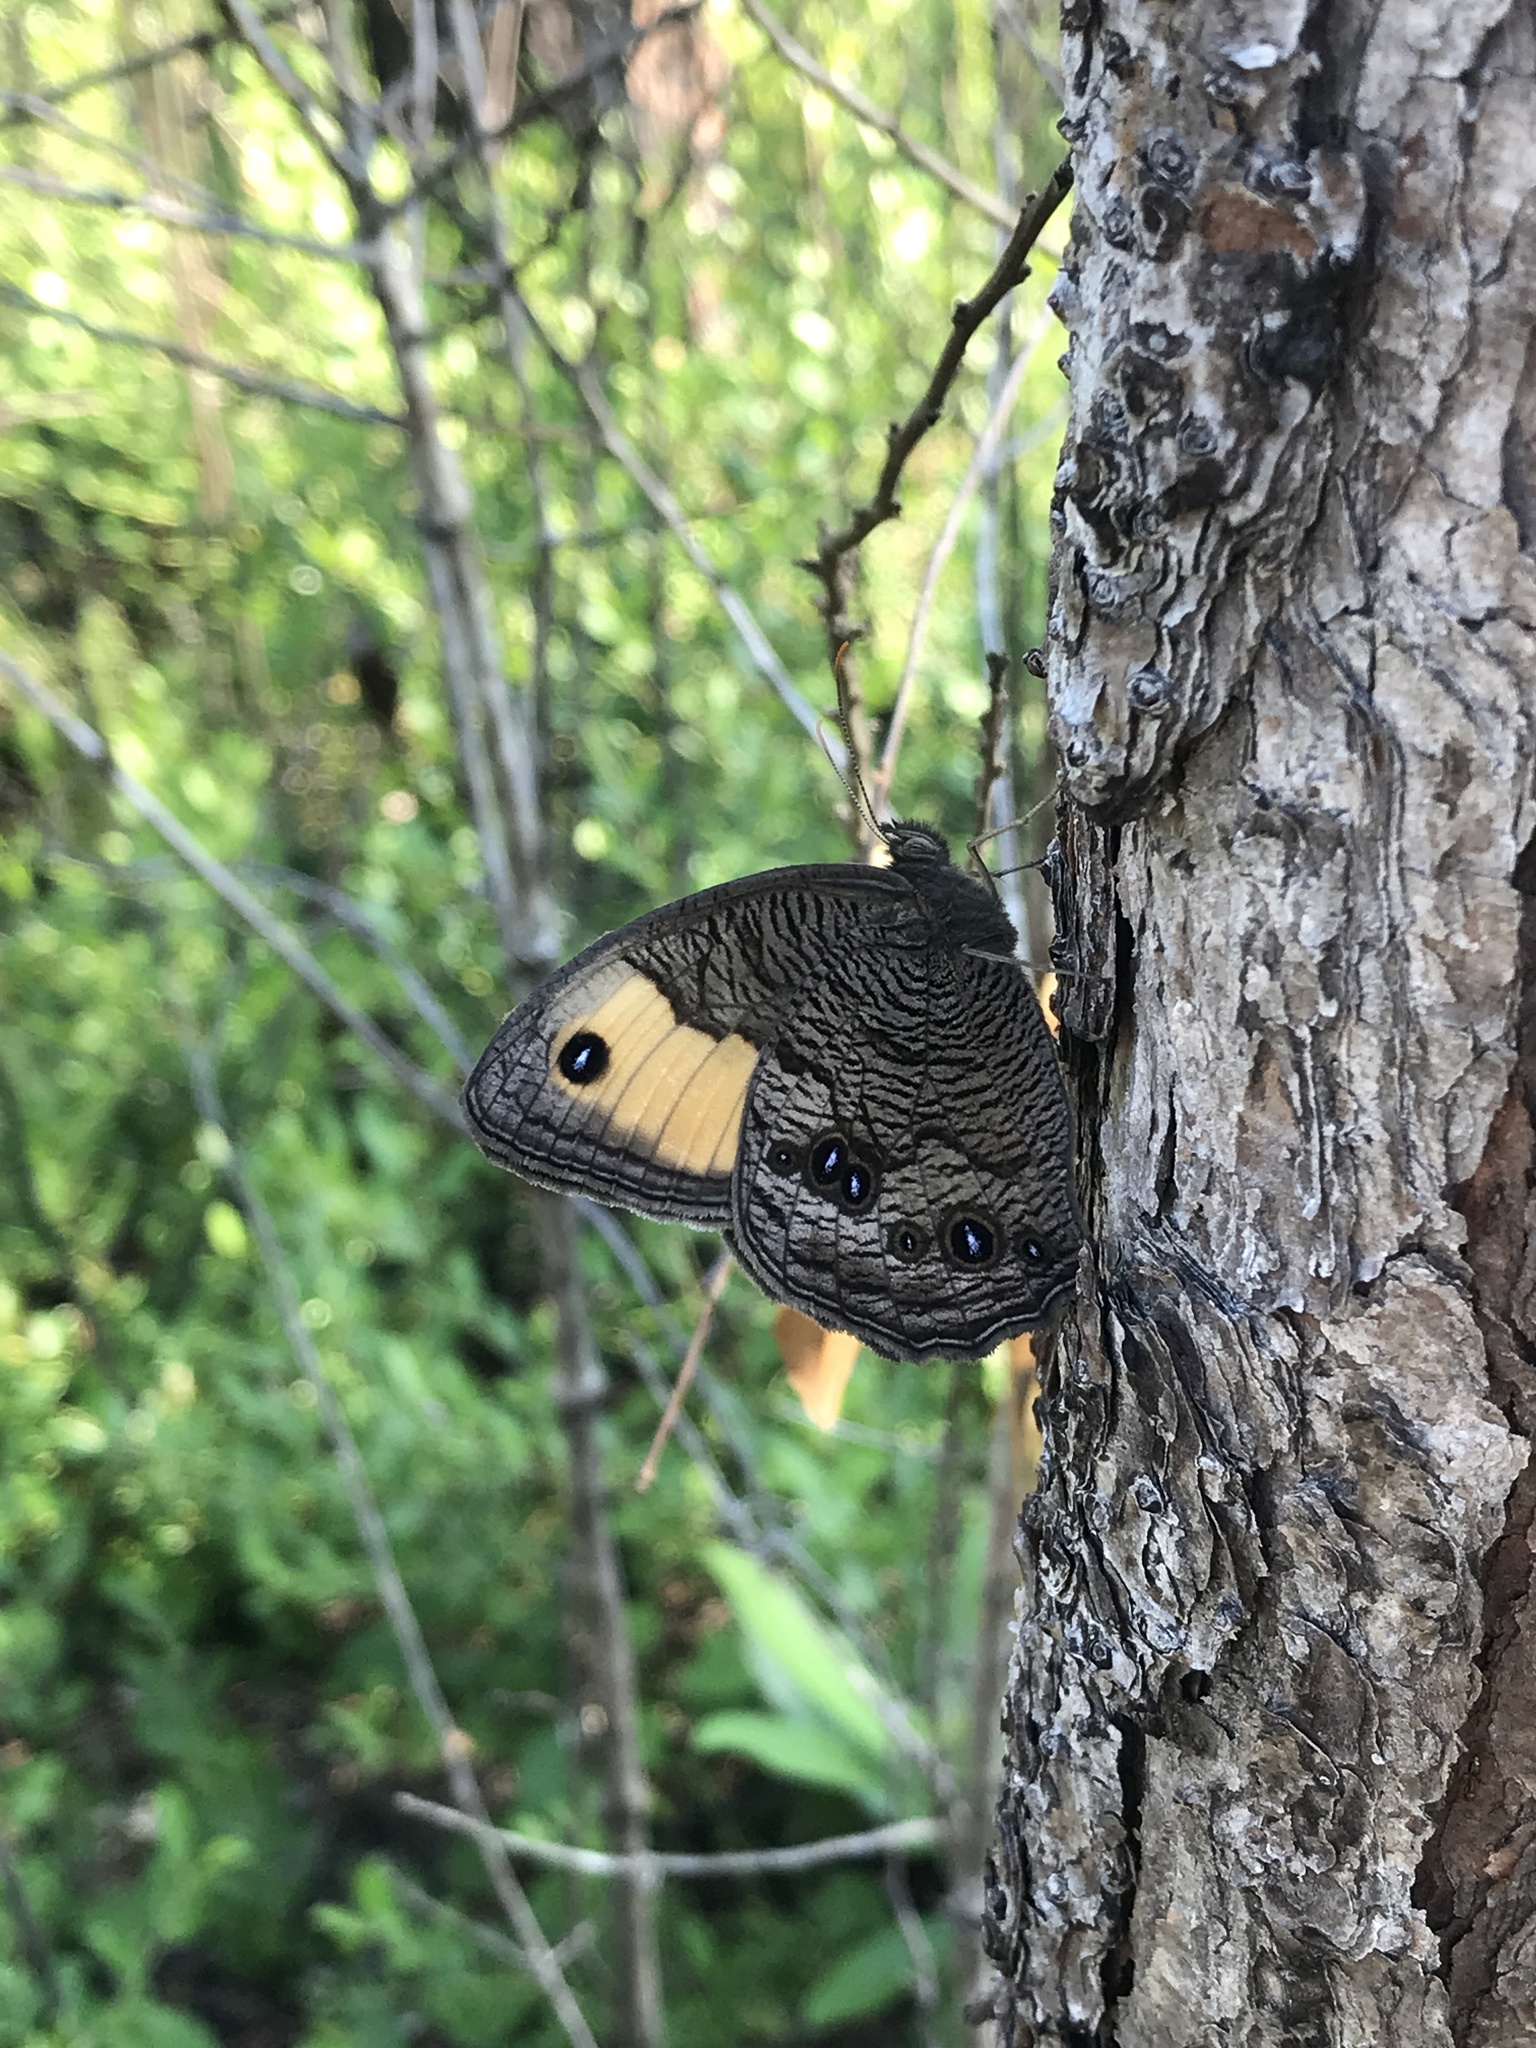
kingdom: Animalia
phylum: Arthropoda
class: Insecta
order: Lepidoptera
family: Nymphalidae
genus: Cercyonis
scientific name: Cercyonis pegala
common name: Common wood-nymph
